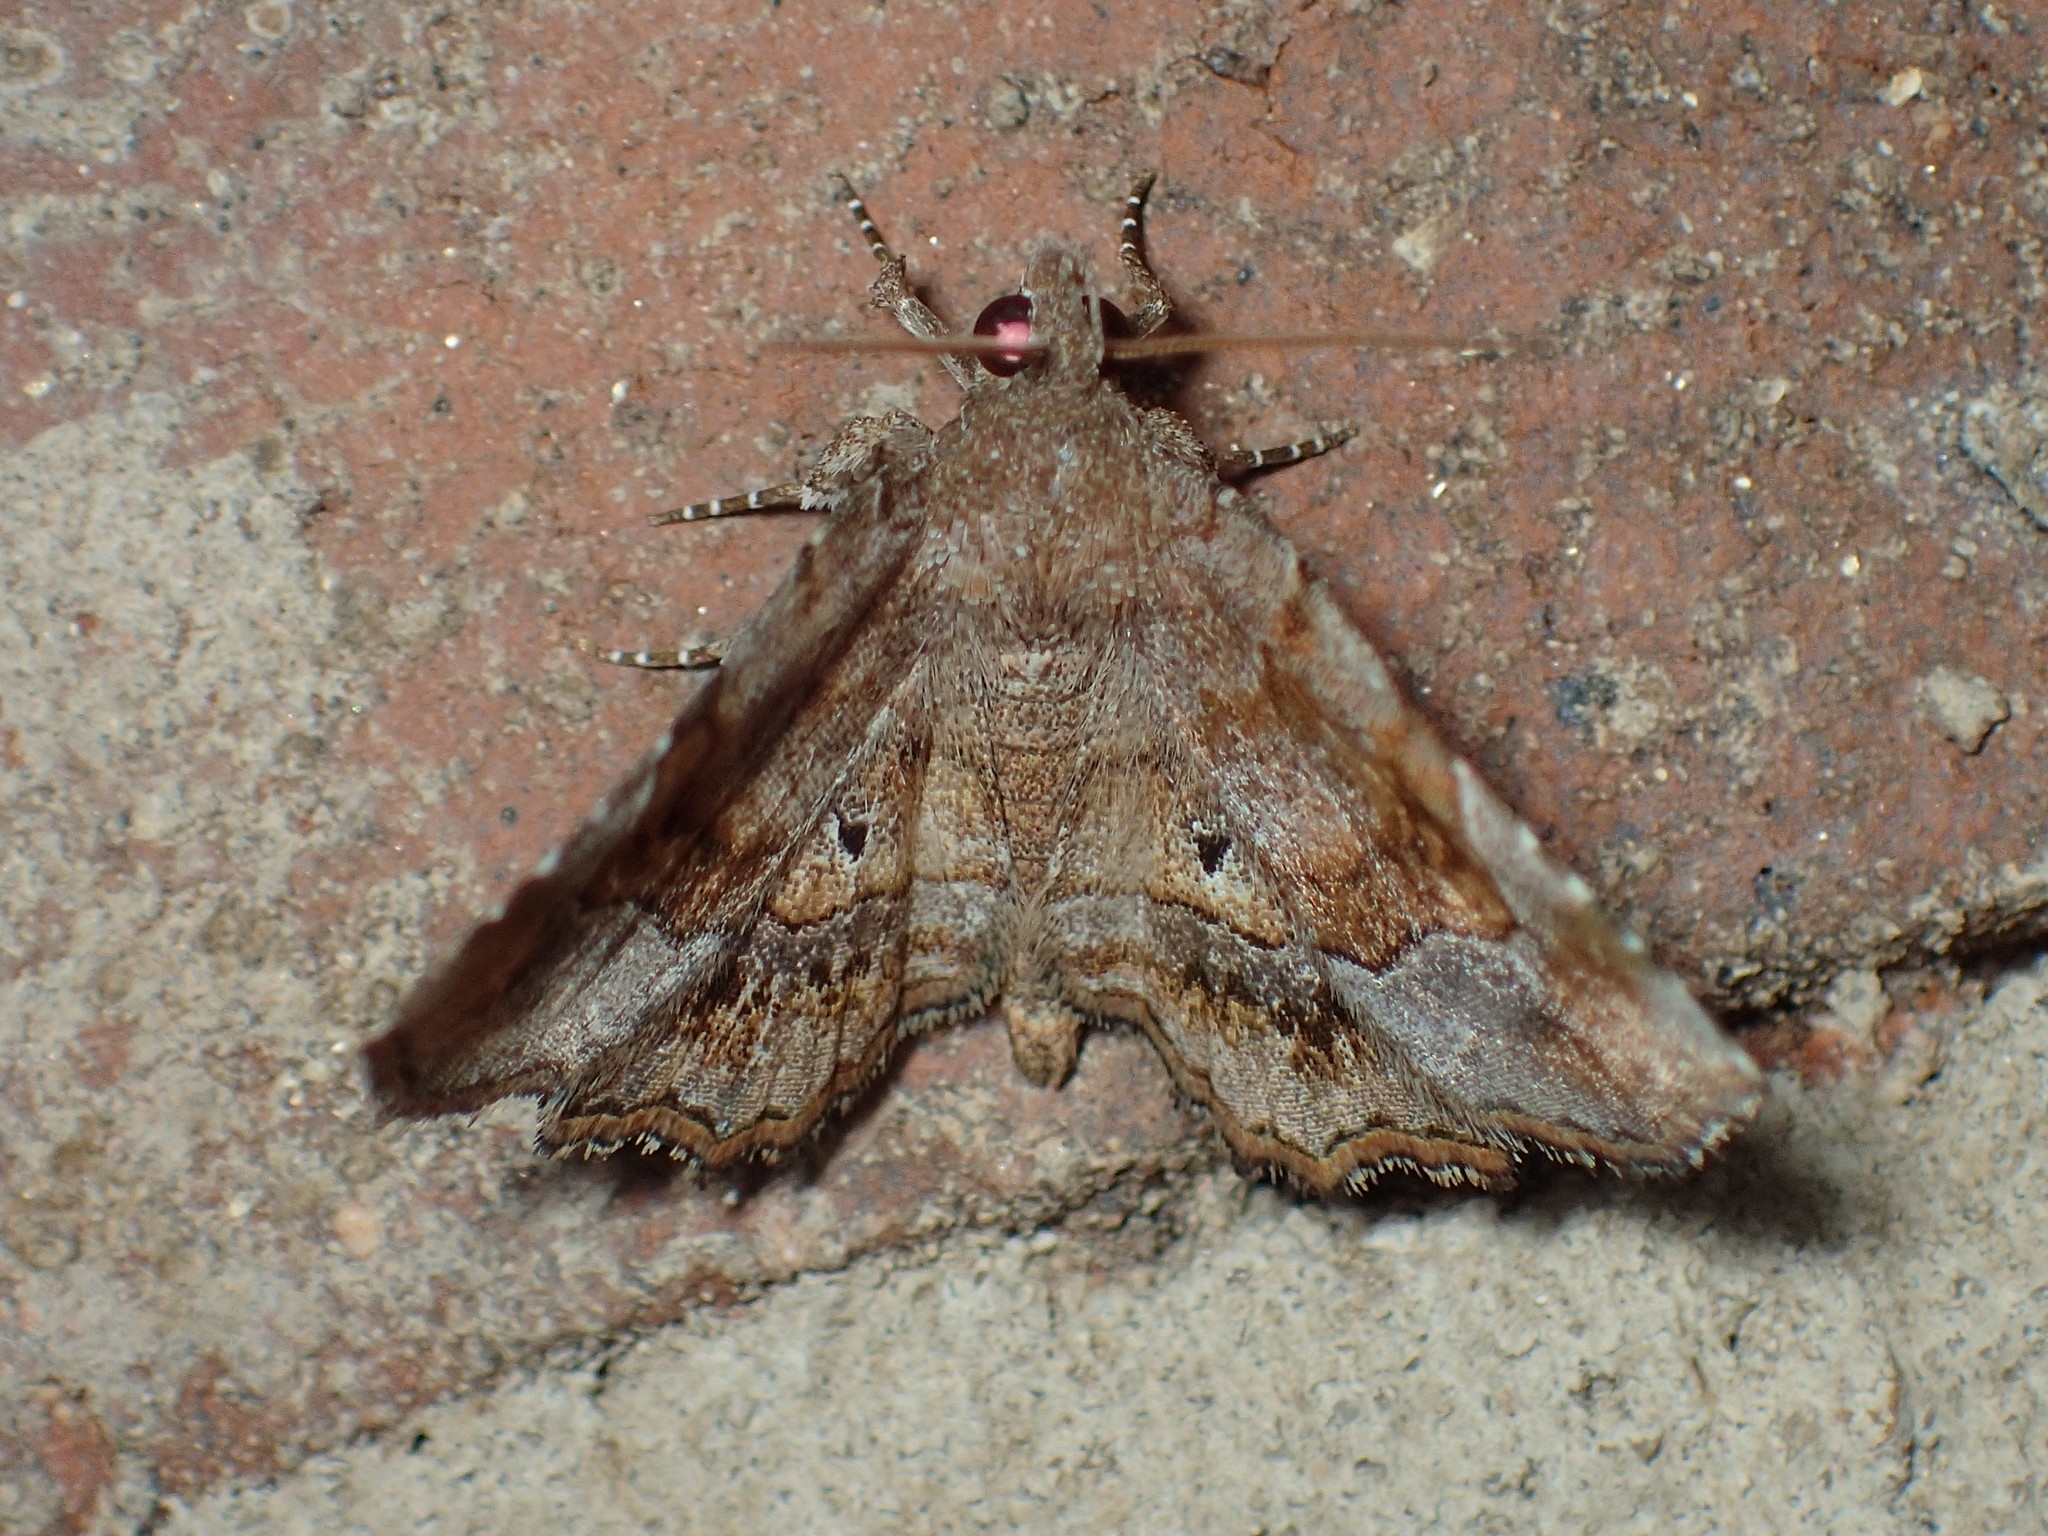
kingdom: Animalia
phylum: Arthropoda
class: Insecta
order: Lepidoptera
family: Erebidae
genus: Pangrapta
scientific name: Pangrapta decoralis
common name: Decorated owlet
